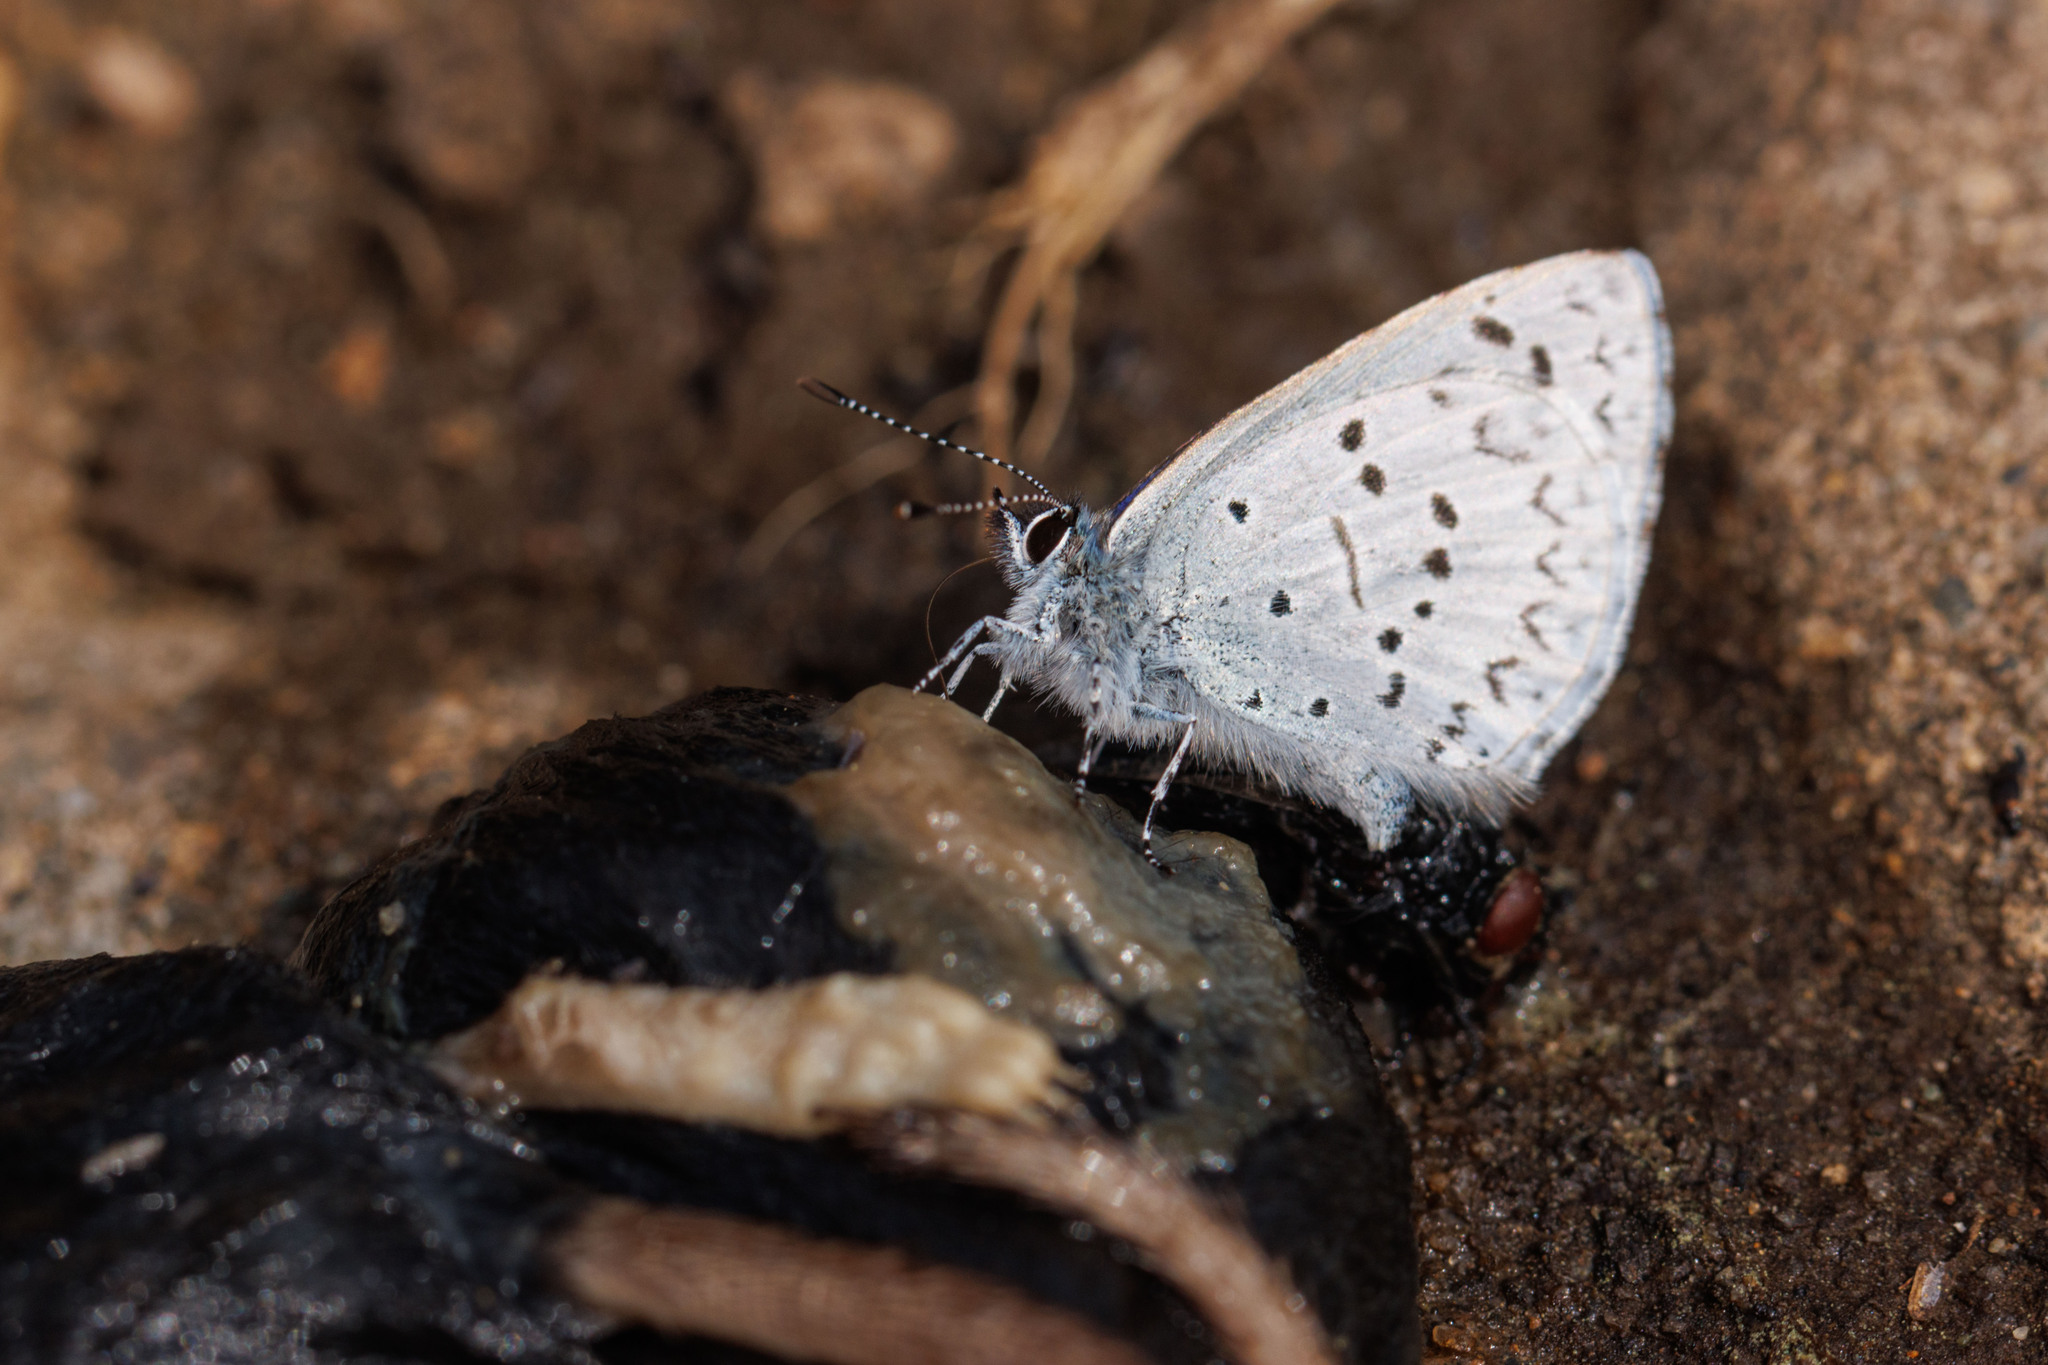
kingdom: Animalia
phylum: Arthropoda
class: Insecta
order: Lepidoptera
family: Lycaenidae
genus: Celastrina
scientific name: Celastrina ladon
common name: Spring azure
